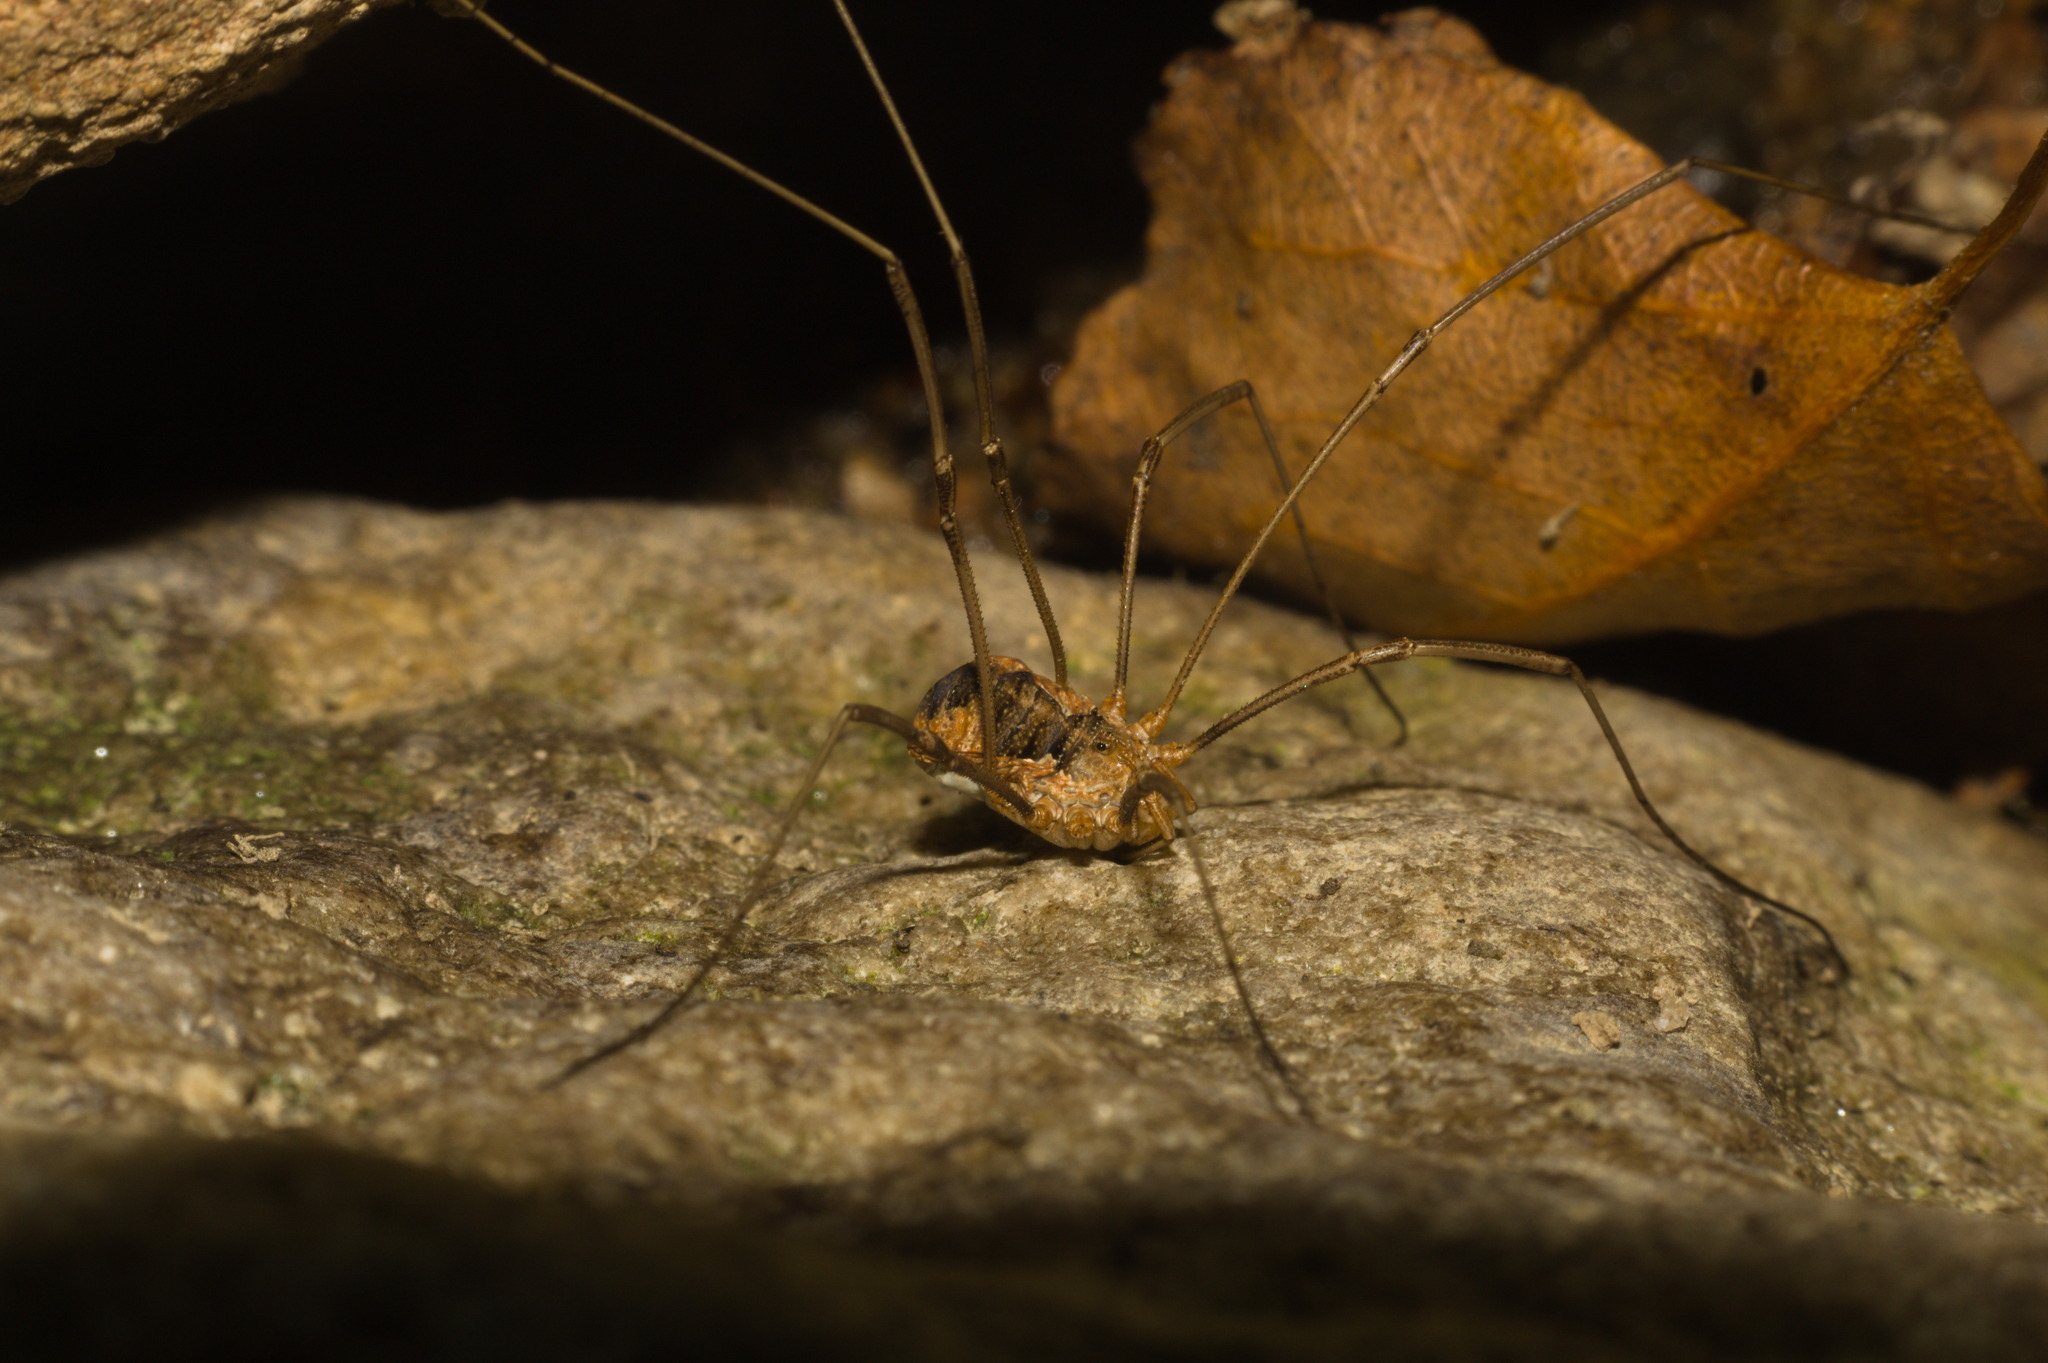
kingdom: Animalia
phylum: Arthropoda
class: Arachnida
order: Opiliones
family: Phalangiidae
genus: Phalangium
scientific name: Phalangium opilio
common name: Daddy longleg
